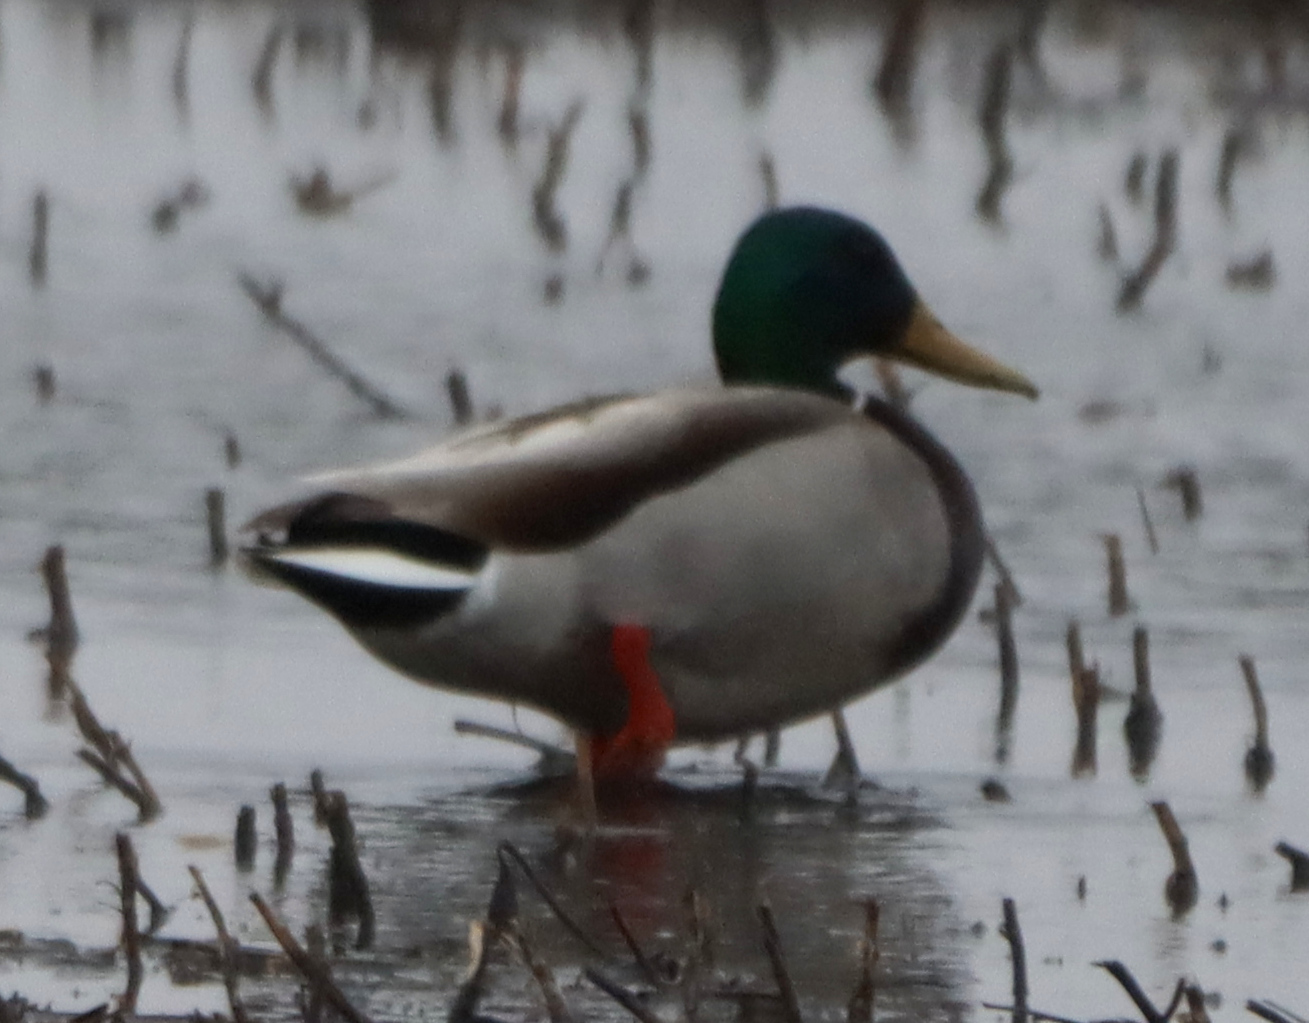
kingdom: Animalia
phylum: Chordata
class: Aves
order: Anseriformes
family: Anatidae
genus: Anas
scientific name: Anas platyrhynchos
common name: Mallard
